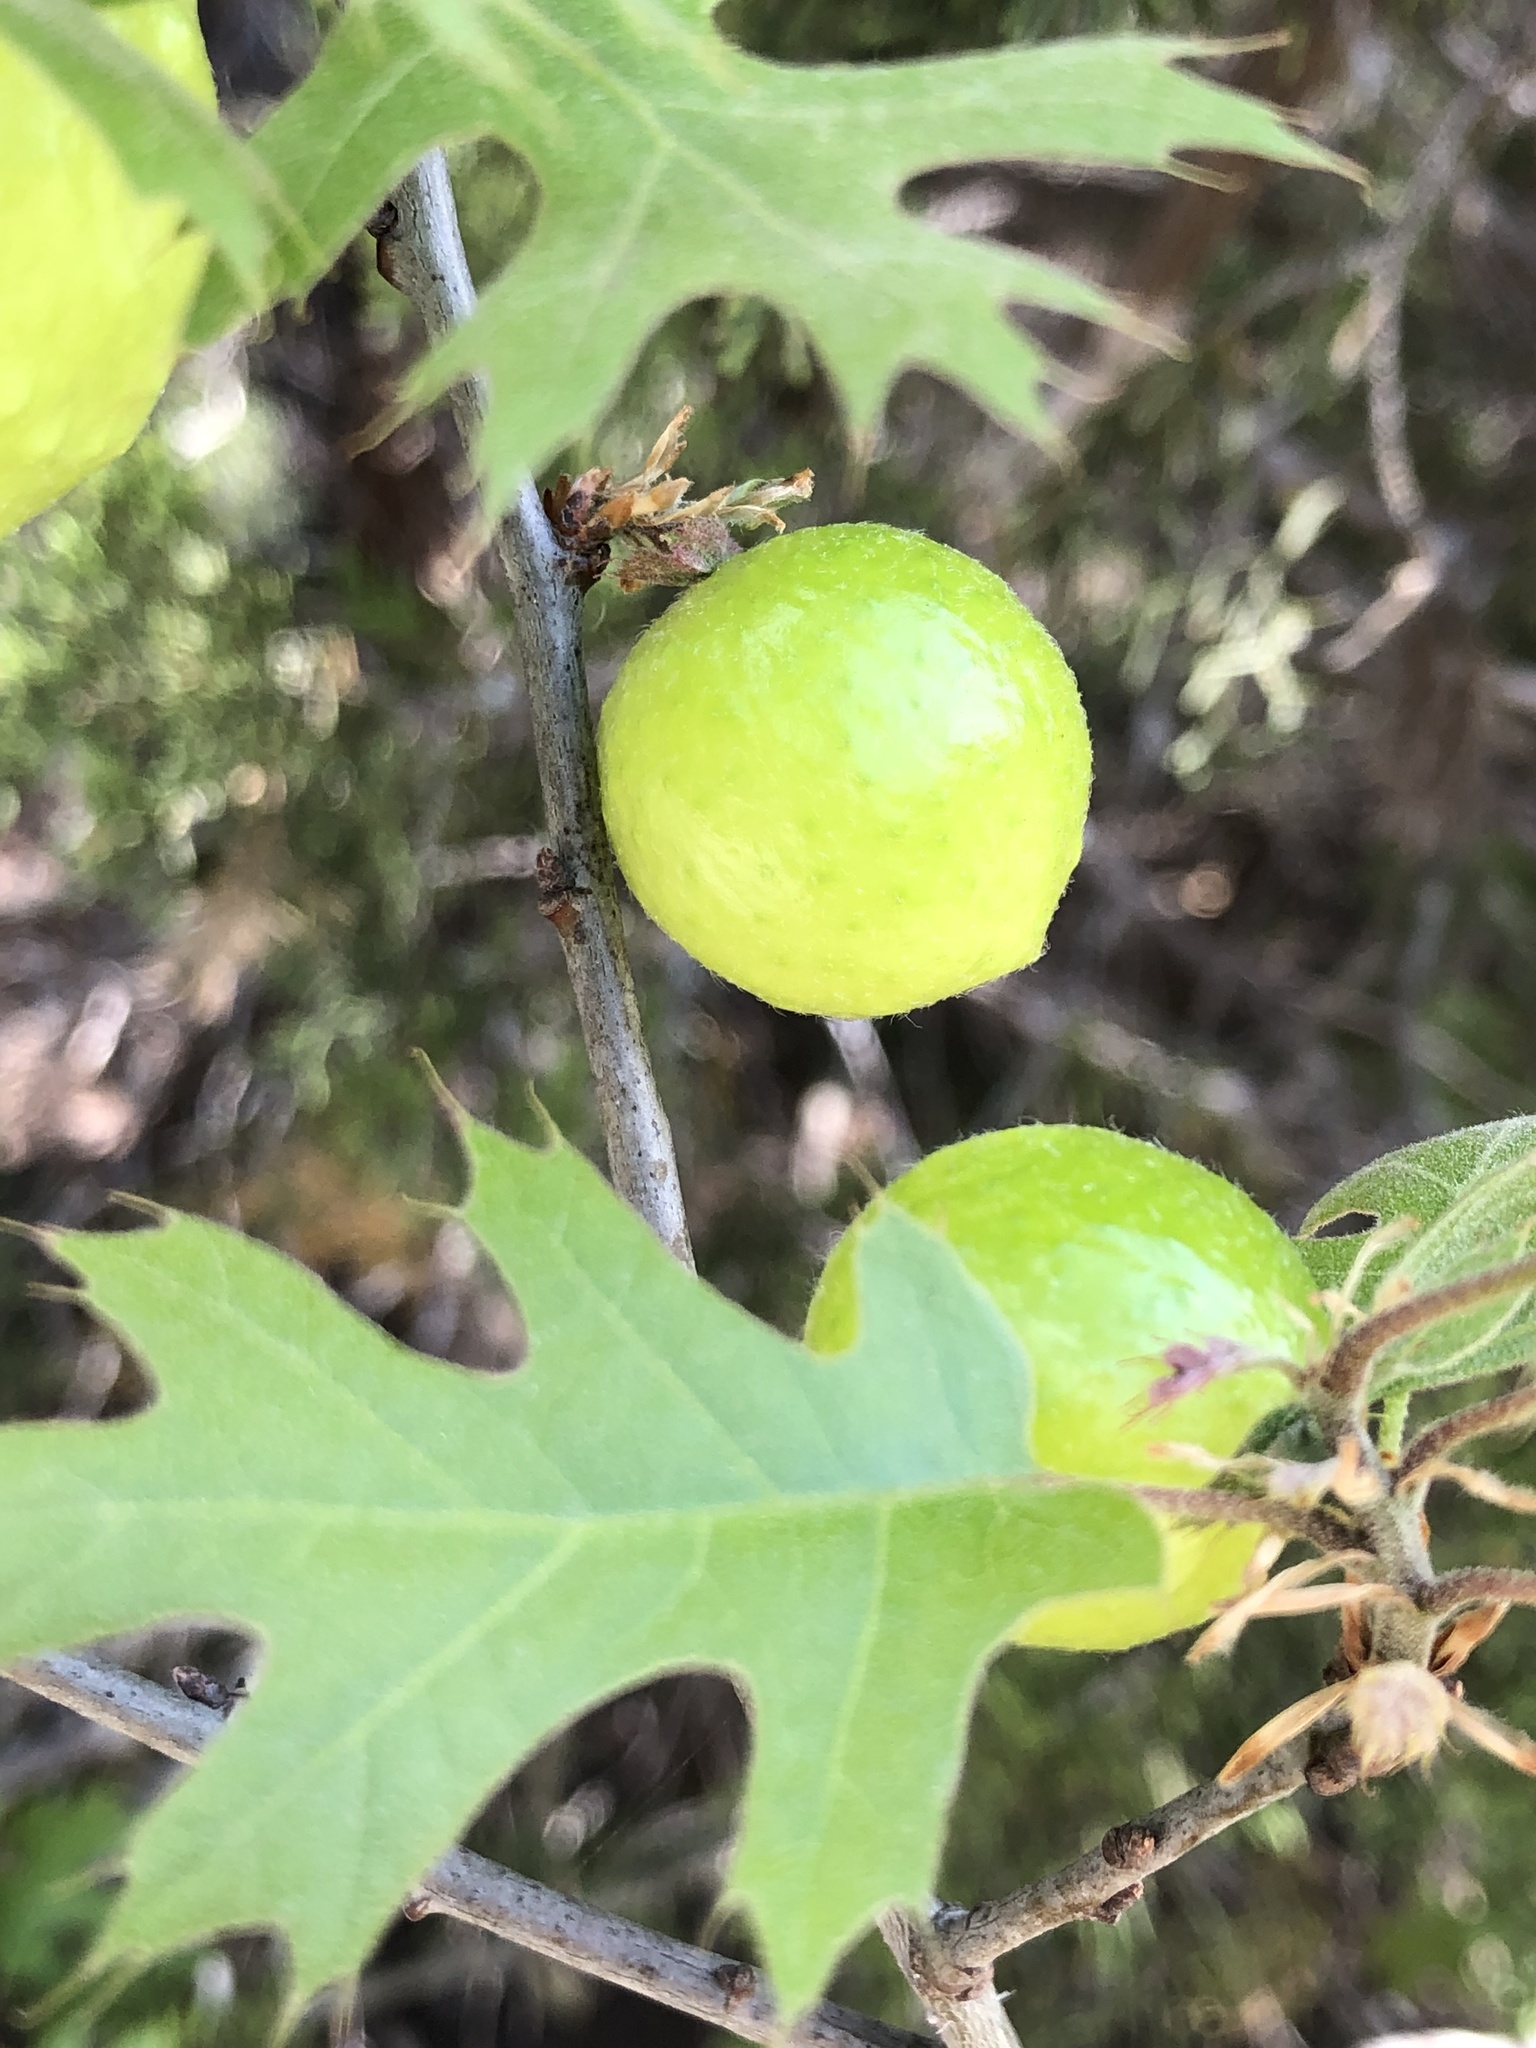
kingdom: Animalia
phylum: Arthropoda
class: Insecta
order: Hymenoptera
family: Cynipidae
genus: Amphibolips
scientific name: Amphibolips
